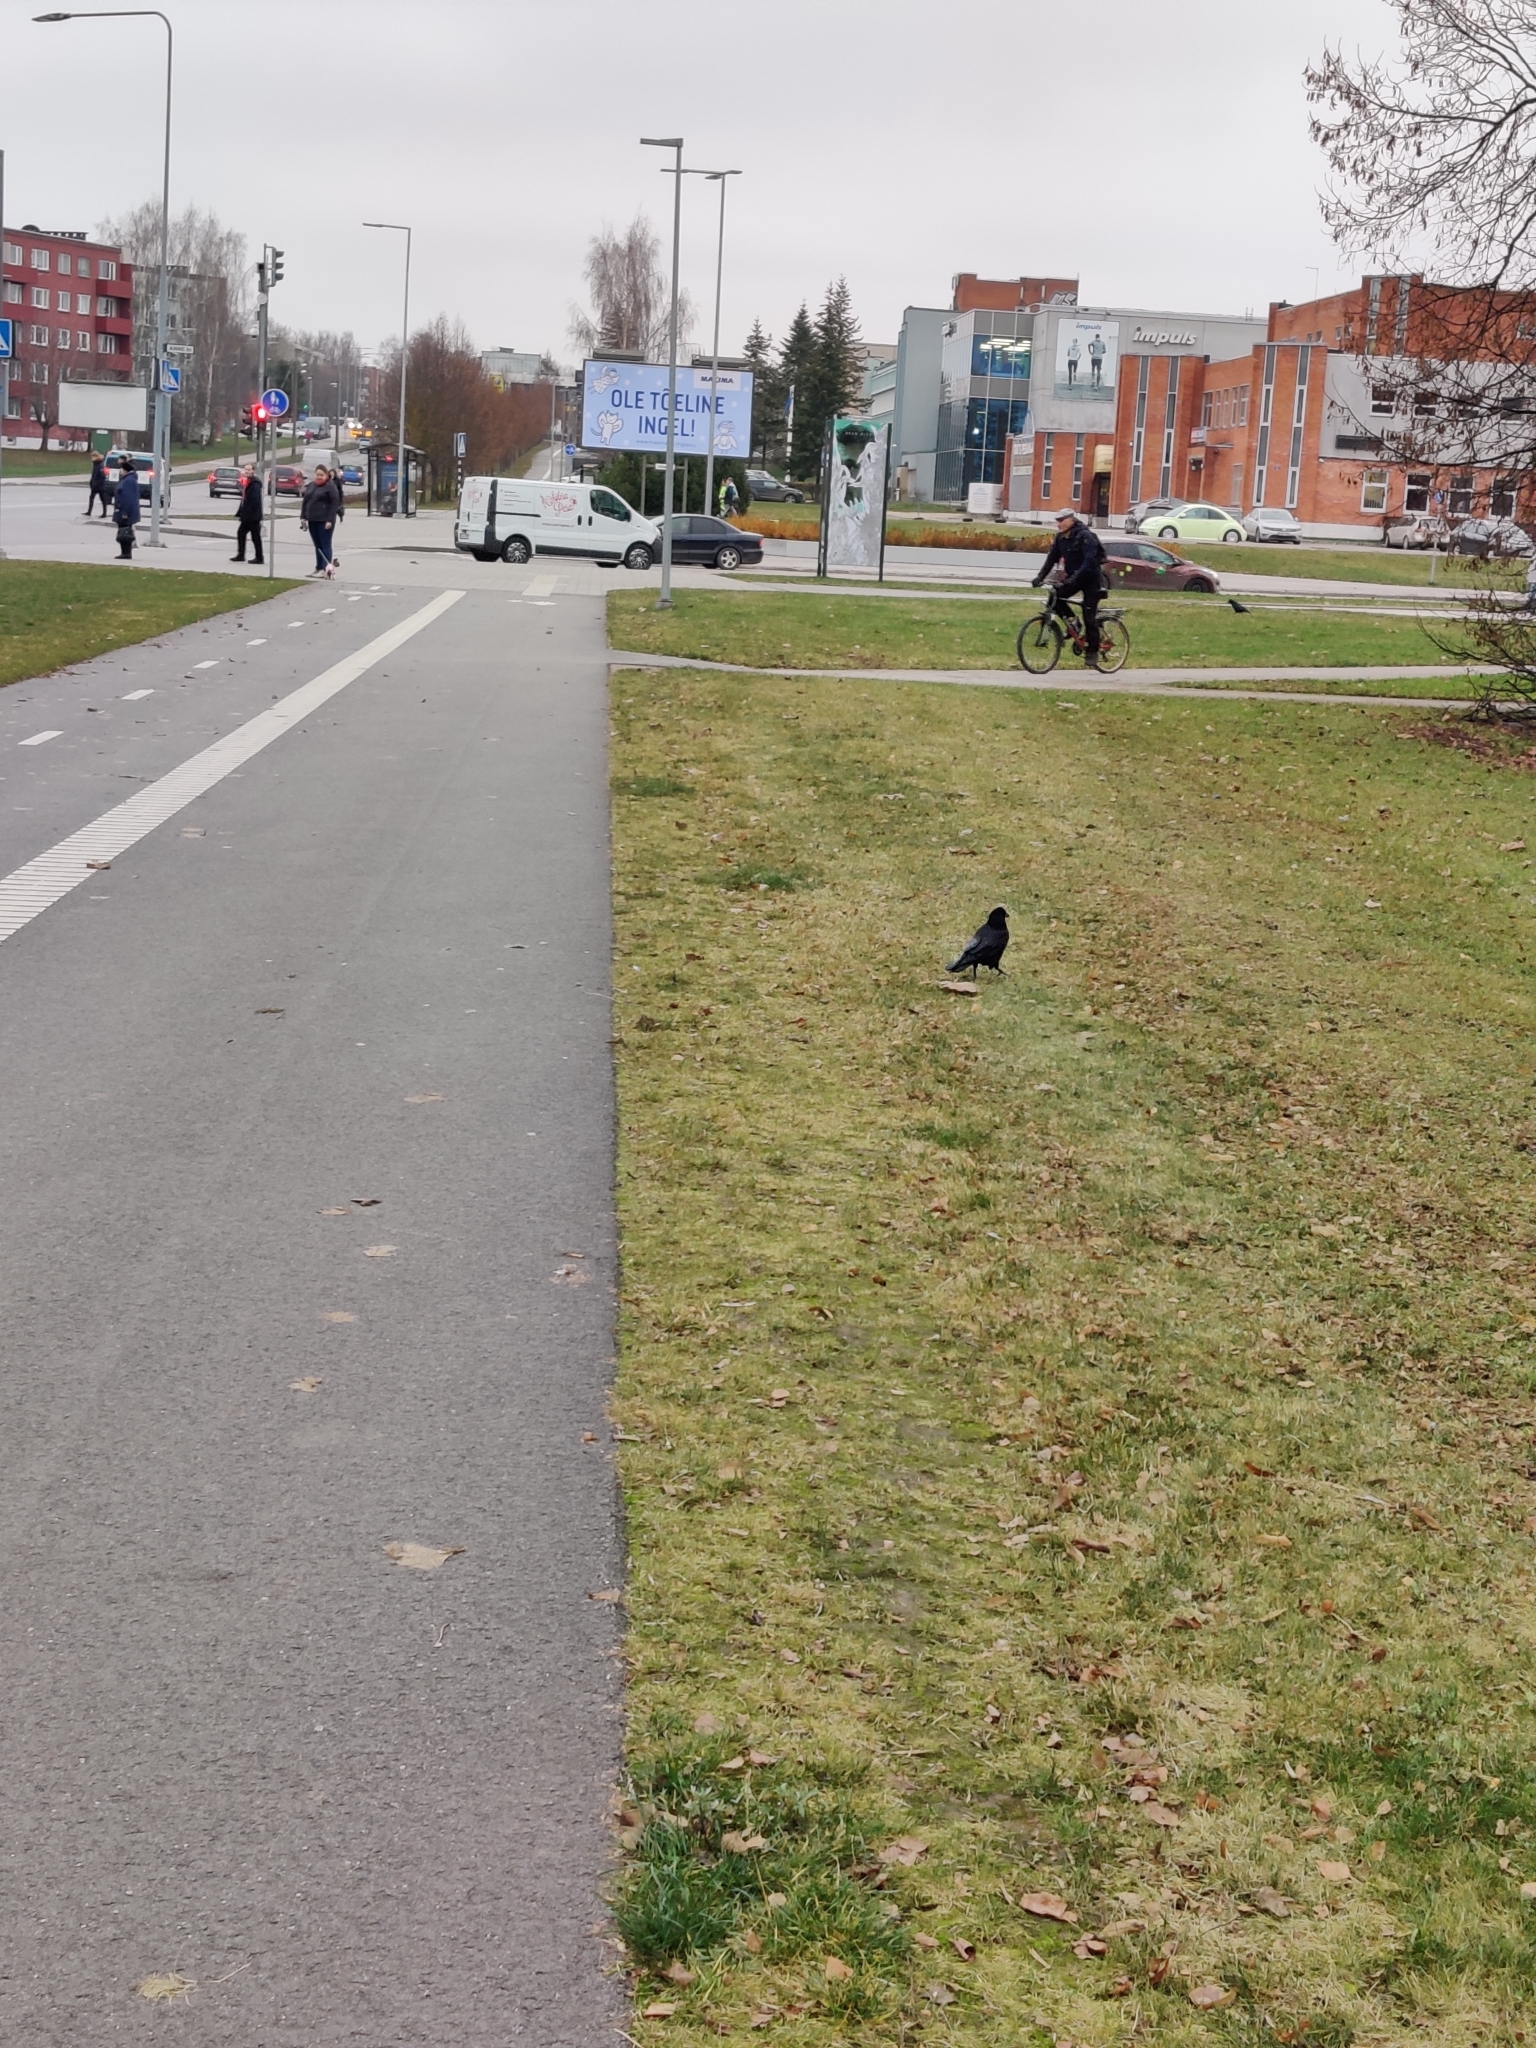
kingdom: Animalia
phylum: Chordata
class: Aves
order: Passeriformes
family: Corvidae
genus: Corvus
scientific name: Corvus frugilegus
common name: Rook
